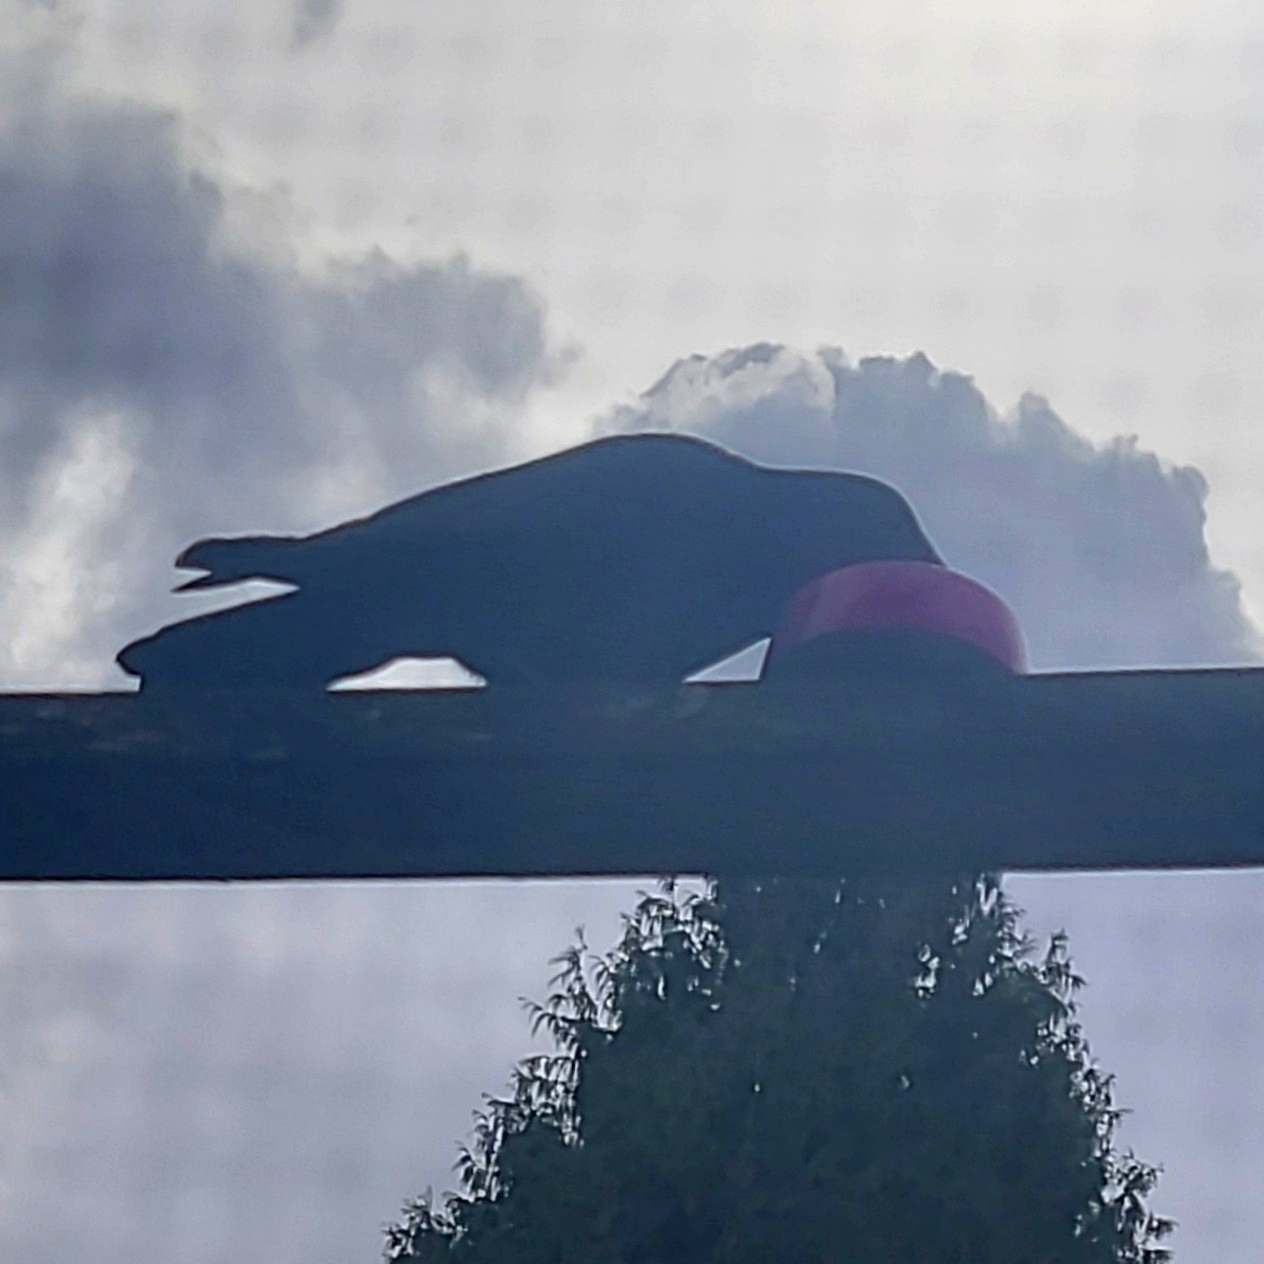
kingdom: Animalia
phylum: Chordata
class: Aves
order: Passeriformes
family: Corvidae
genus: Corvus
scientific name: Corvus brachyrhynchos
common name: American crow
